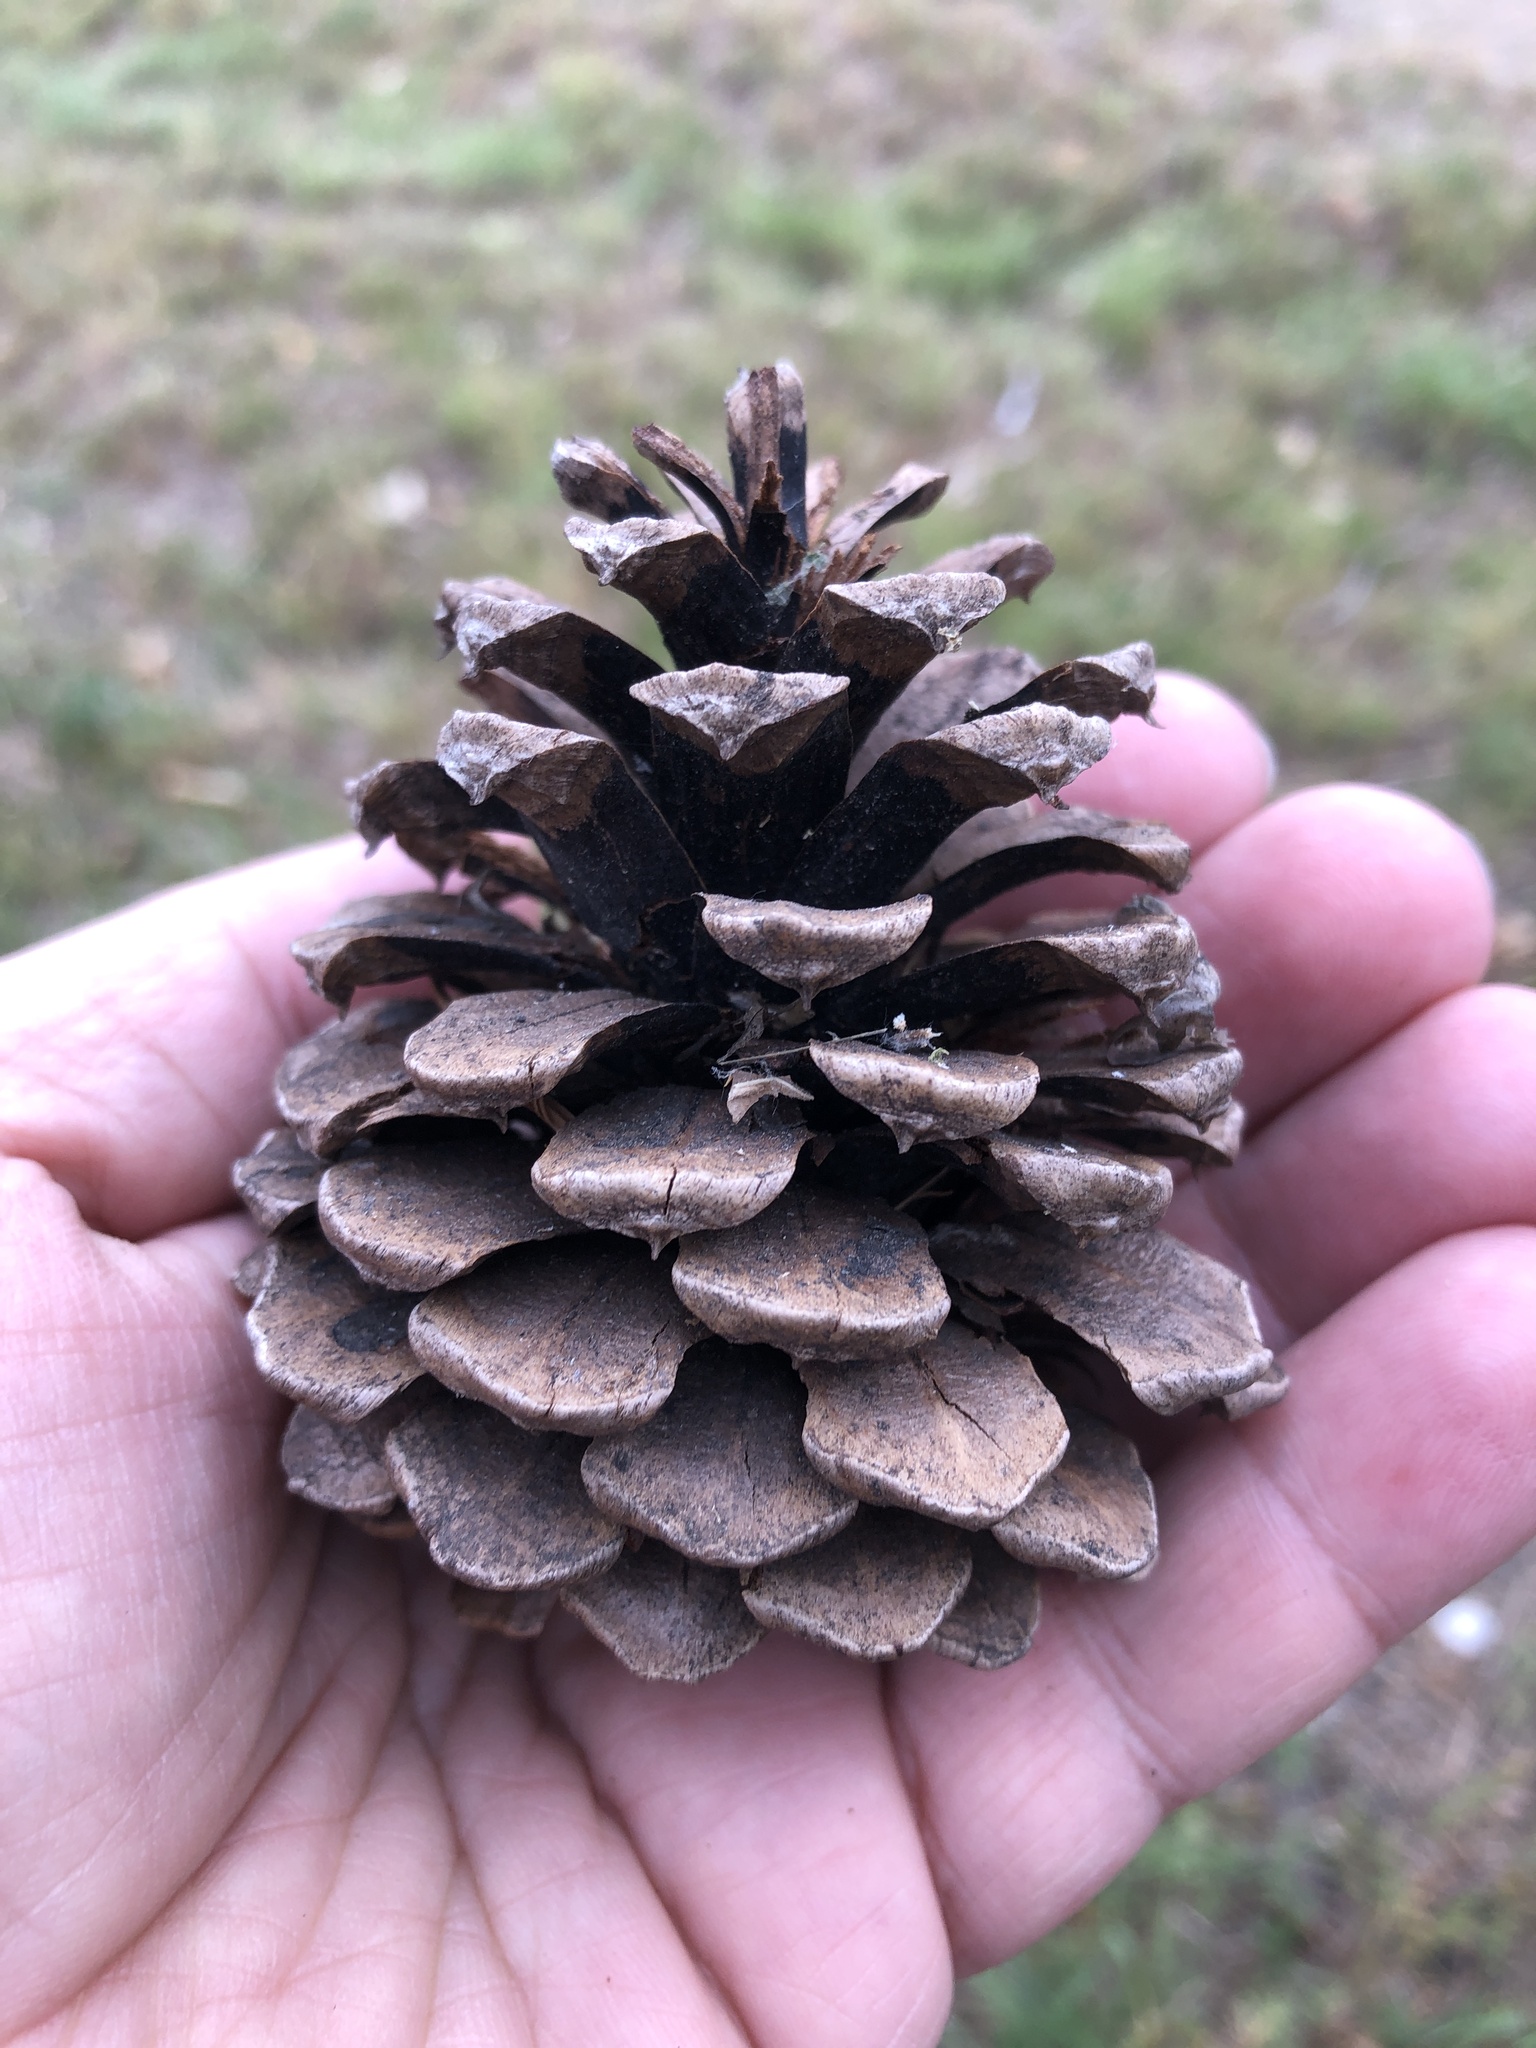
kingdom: Plantae
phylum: Tracheophyta
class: Pinopsida
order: Pinales
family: Pinaceae
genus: Pinus
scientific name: Pinus ponderosa
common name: Western yellow-pine
